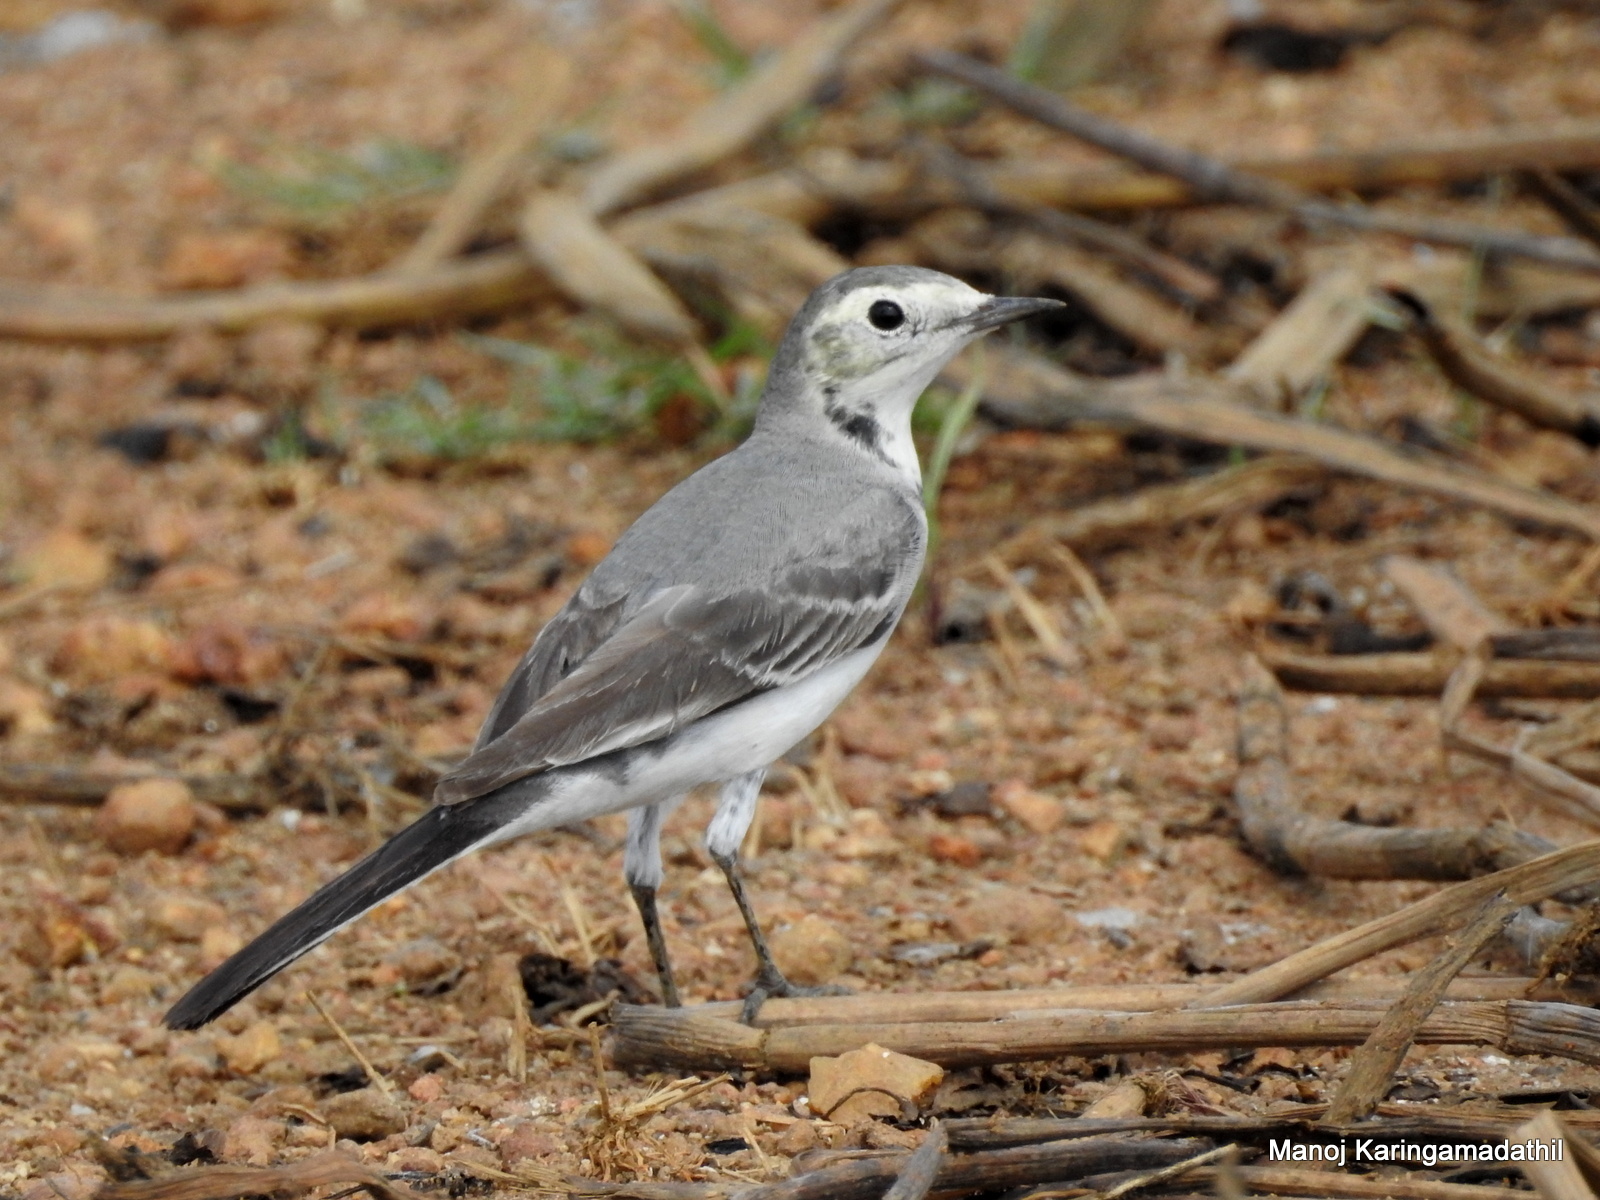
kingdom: Animalia
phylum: Chordata
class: Aves
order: Passeriformes
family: Motacillidae
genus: Motacilla
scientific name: Motacilla alba
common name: White wagtail
